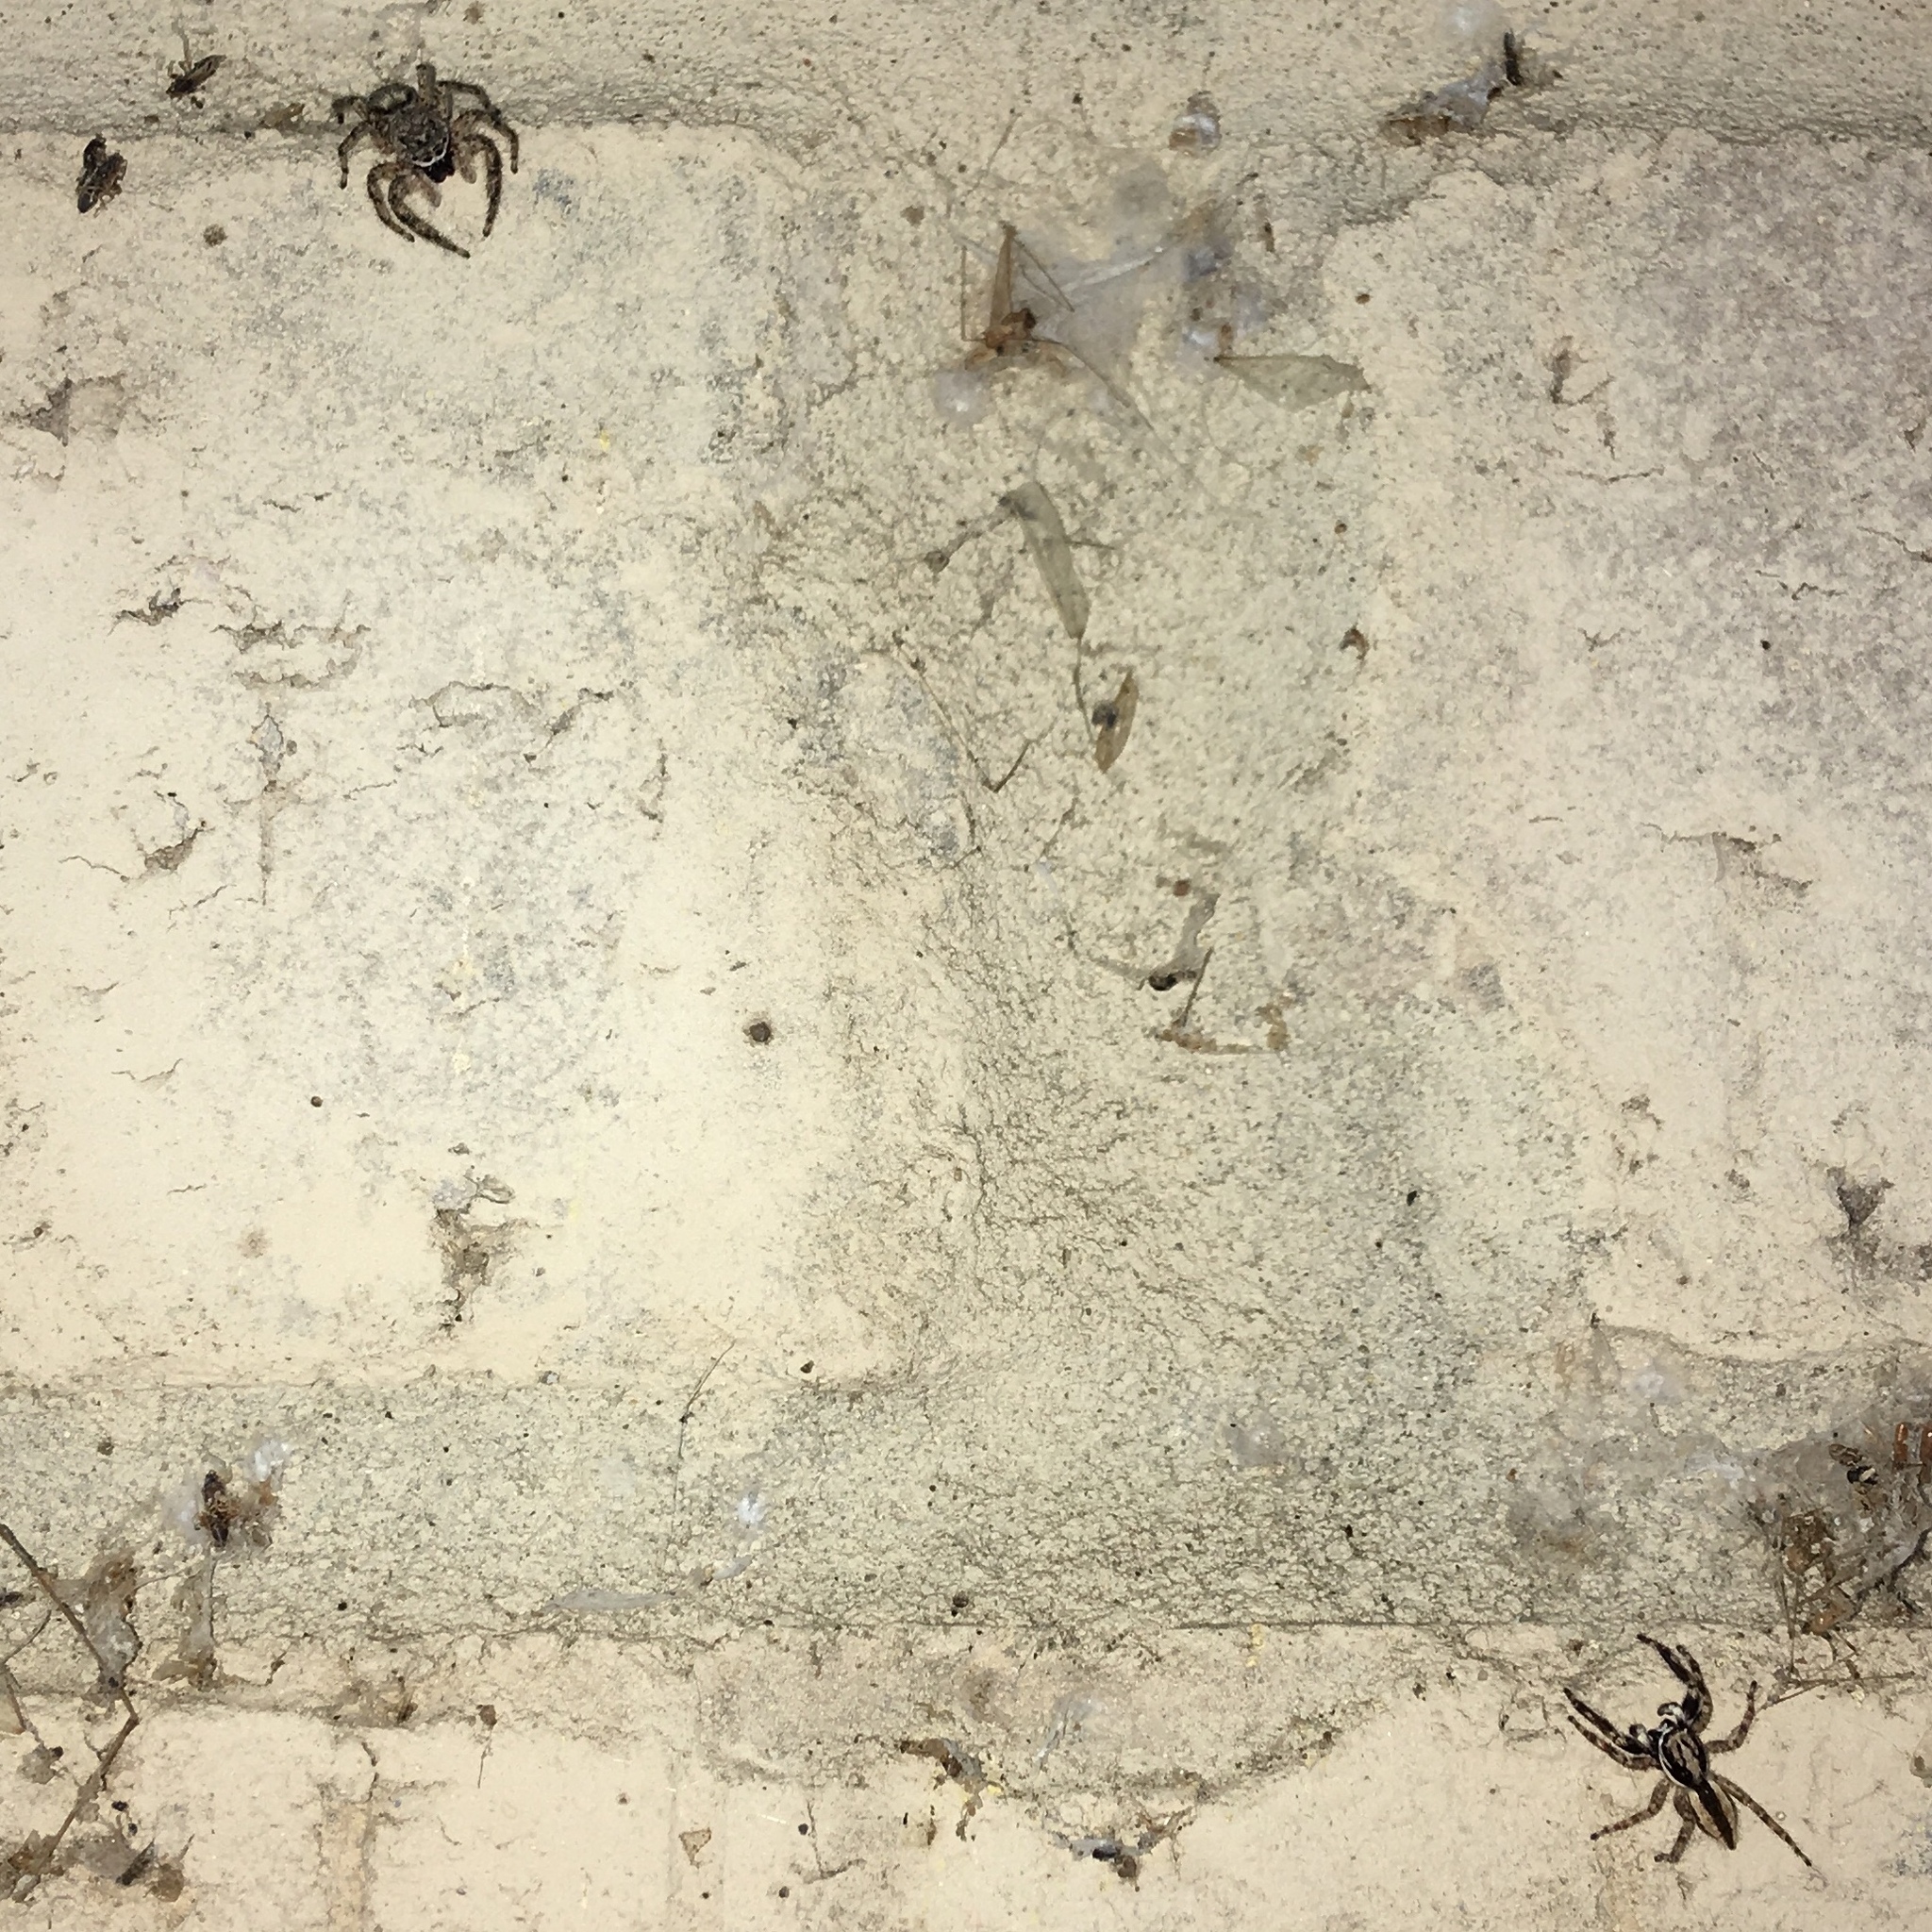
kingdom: Animalia
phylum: Arthropoda
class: Arachnida
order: Araneae
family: Salticidae
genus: Platycryptus
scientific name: Platycryptus undatus
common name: Tan jumping spider
